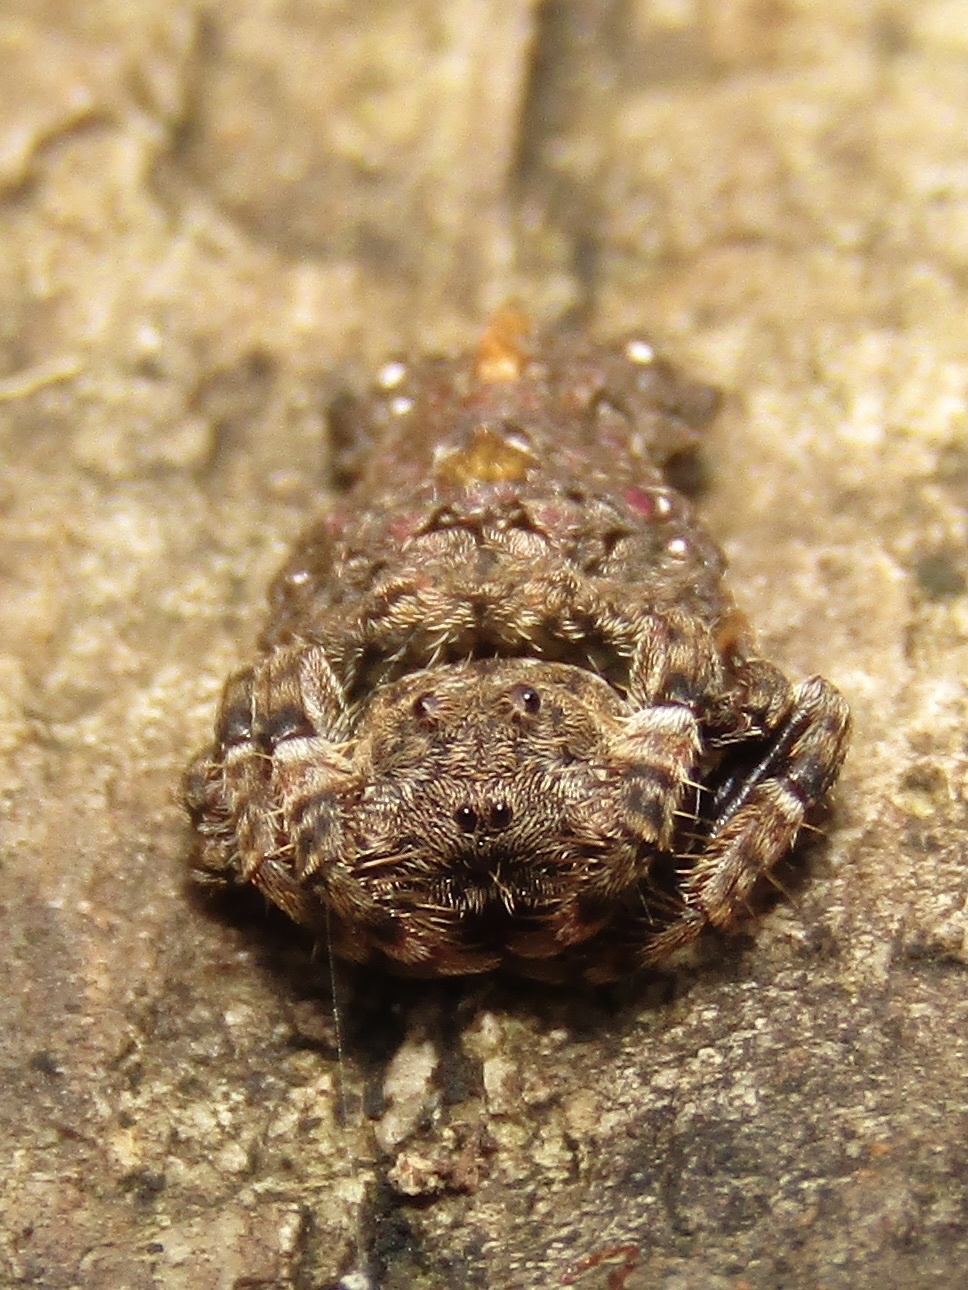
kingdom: Animalia
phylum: Arthropoda
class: Arachnida
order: Araneae
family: Arkyidae
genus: Arkys
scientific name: Arkys alticephala
